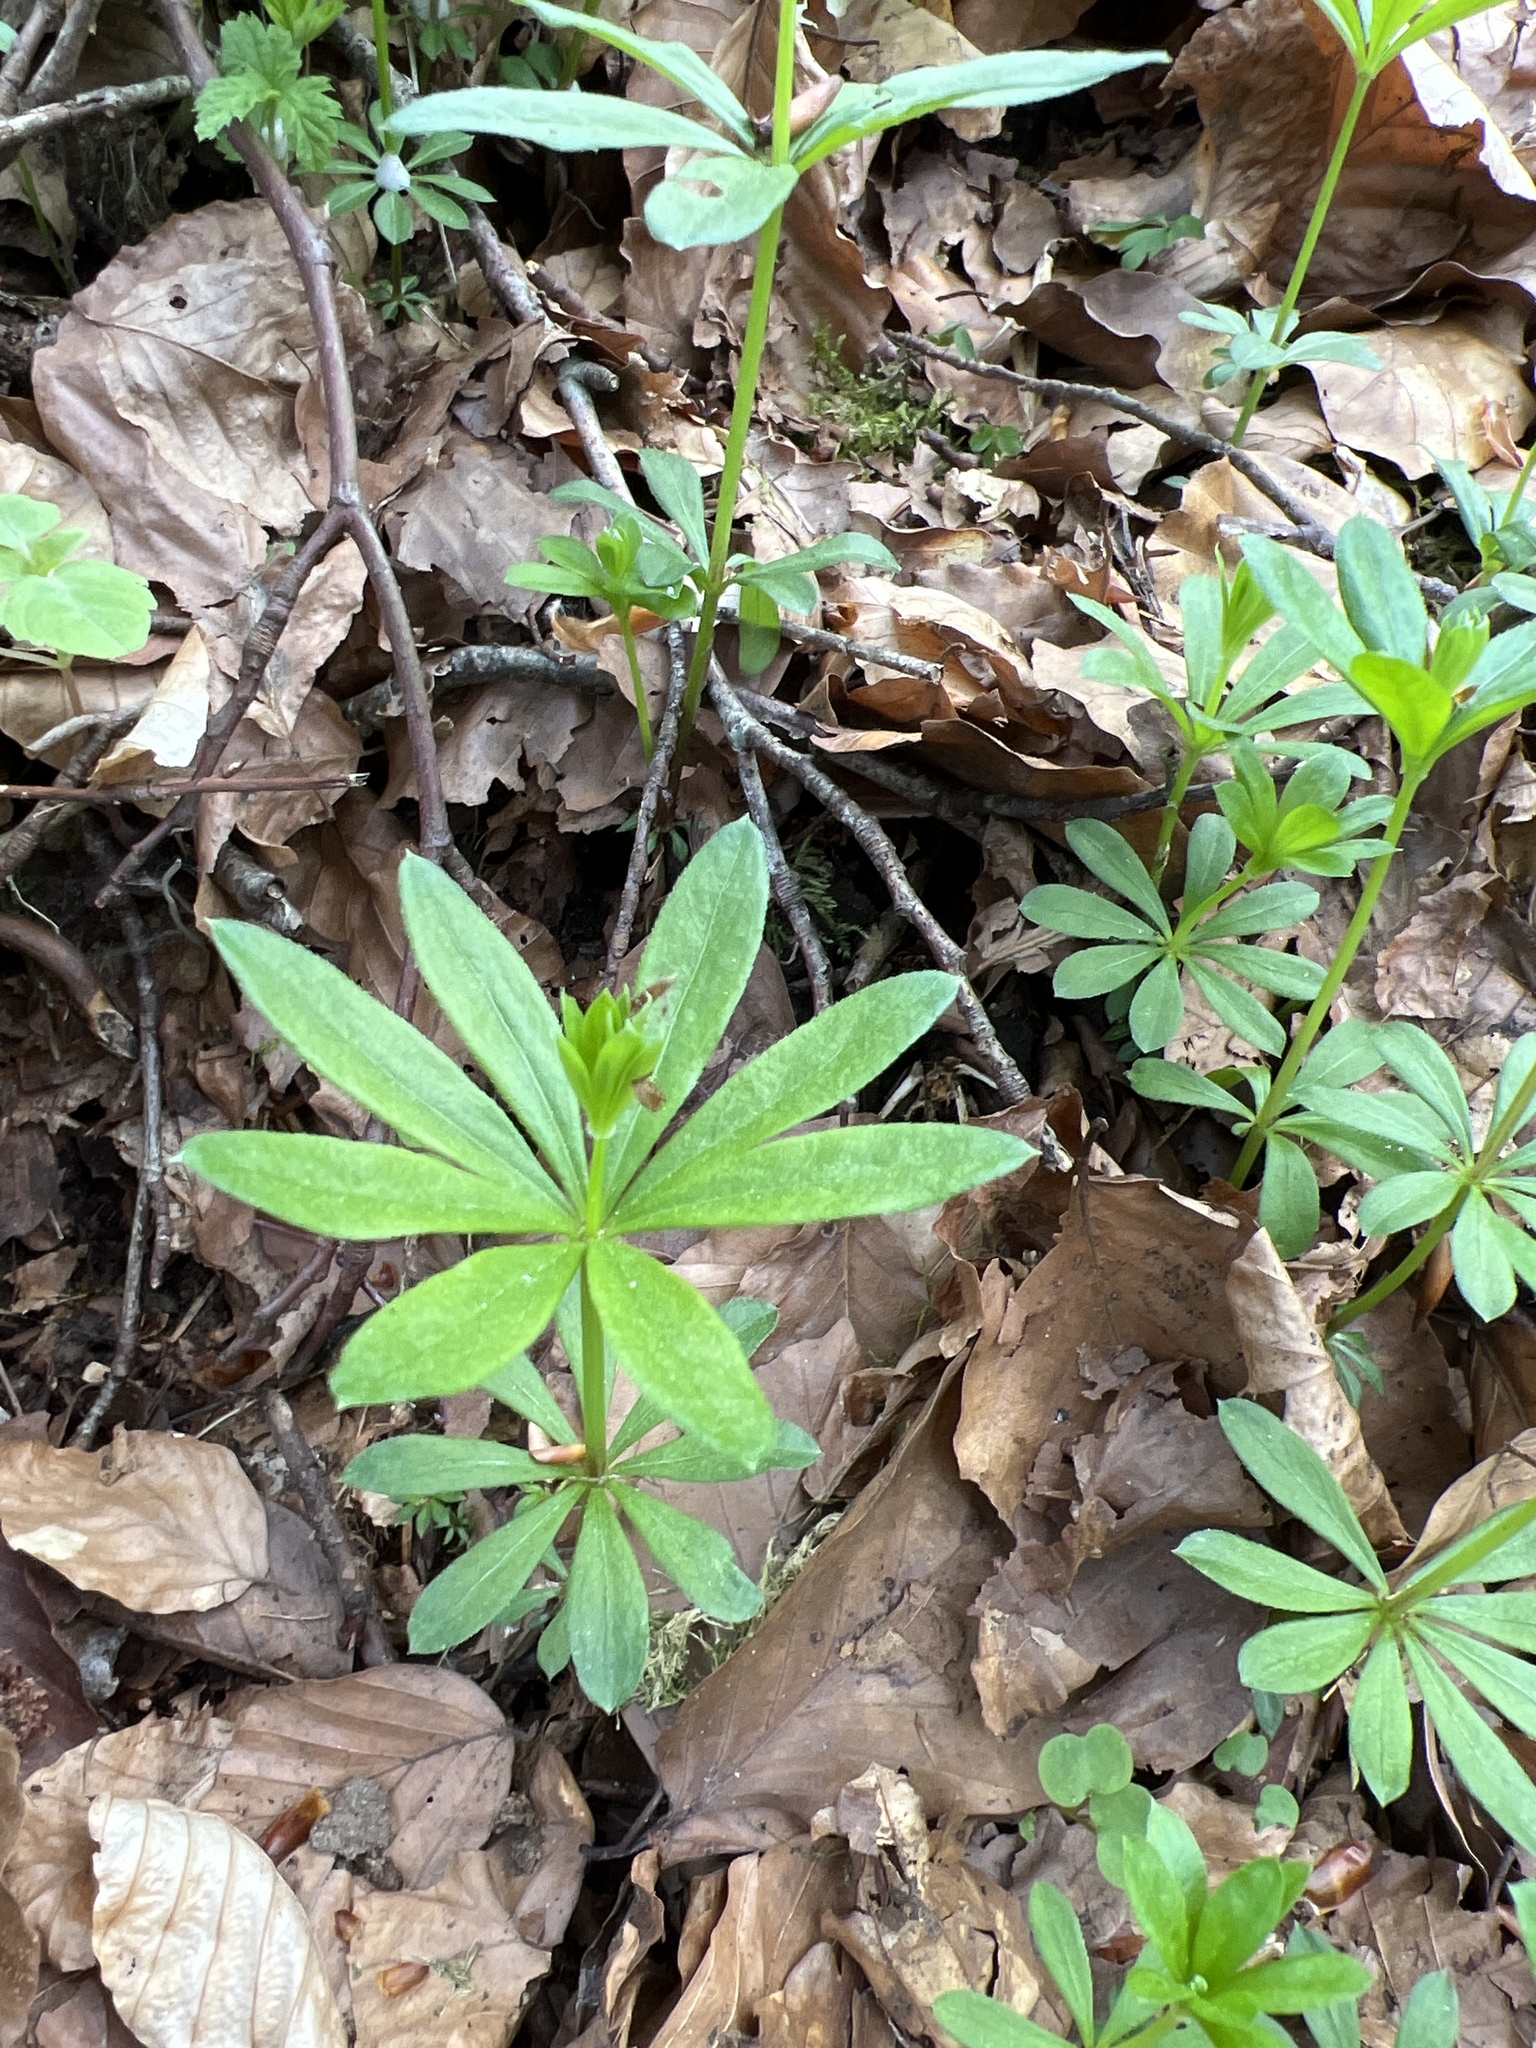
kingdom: Plantae
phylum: Tracheophyta
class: Magnoliopsida
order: Gentianales
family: Rubiaceae
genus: Galium
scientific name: Galium odoratum
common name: Sweet woodruff
